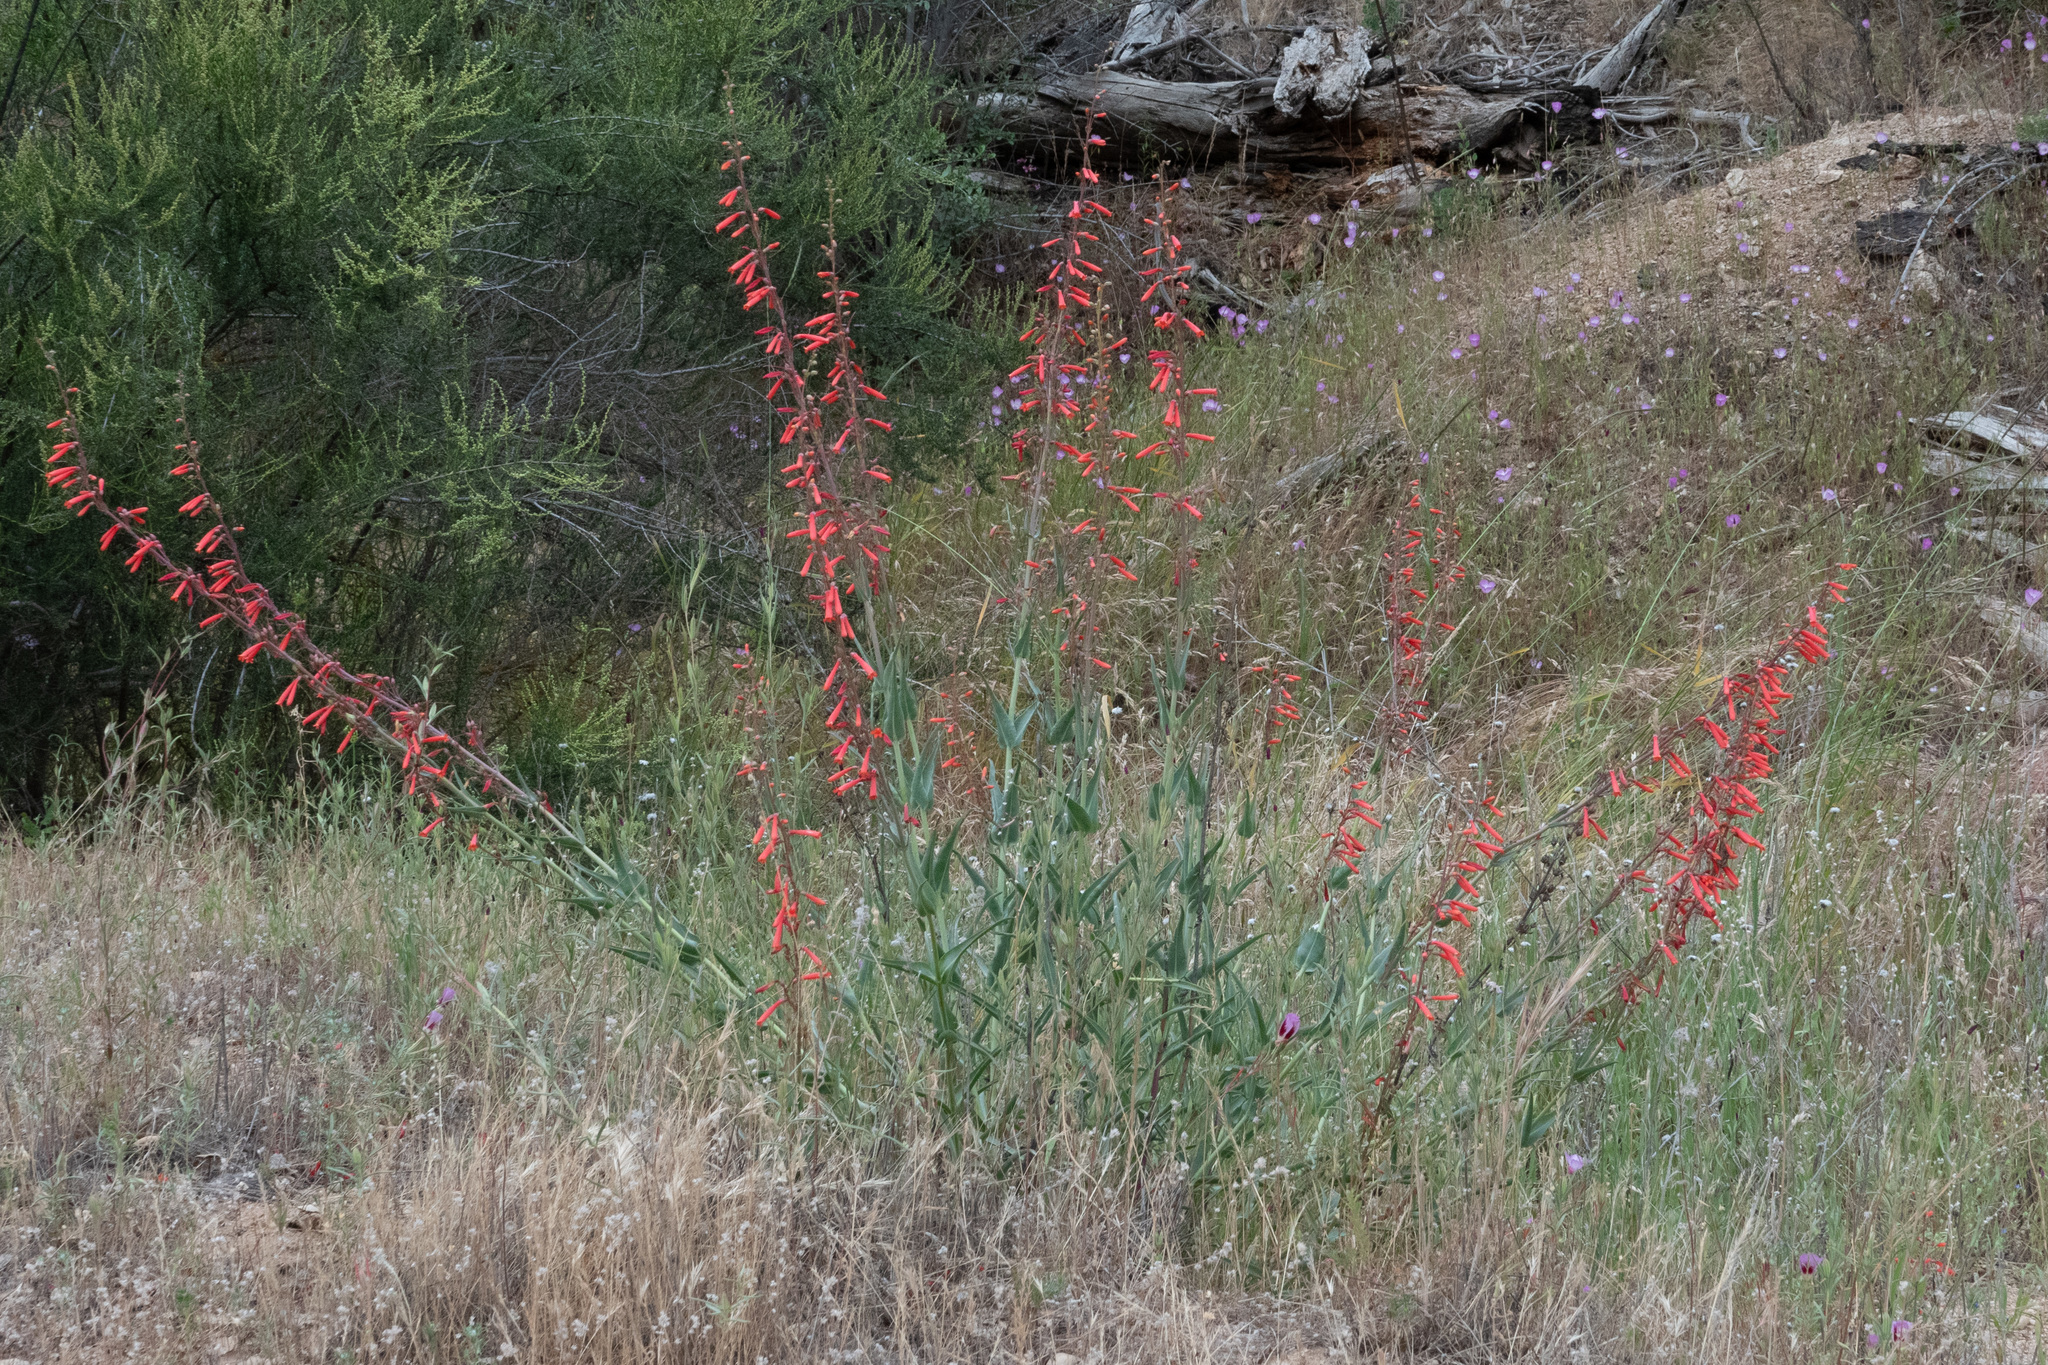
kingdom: Plantae
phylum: Tracheophyta
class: Magnoliopsida
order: Lamiales
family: Plantaginaceae
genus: Penstemon
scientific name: Penstemon centranthifolius
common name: Scarlet bugler
